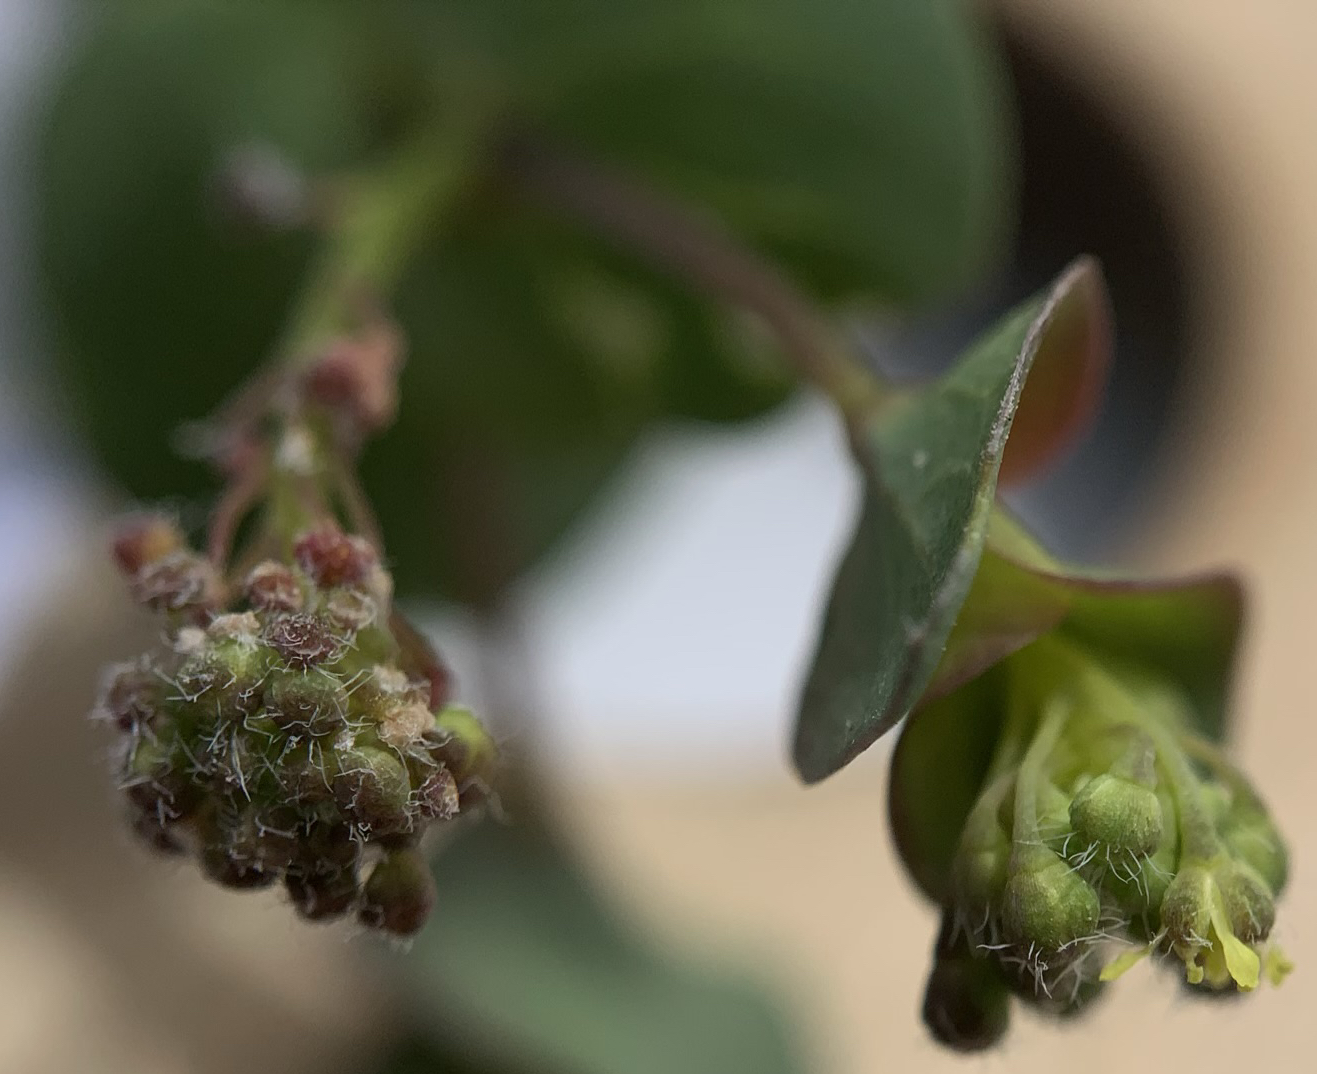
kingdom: Plantae
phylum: Tracheophyta
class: Magnoliopsida
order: Brassicales
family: Brassicaceae
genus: Lepidium
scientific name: Lepidium perfoliatum
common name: Perfoliate pepperwort
